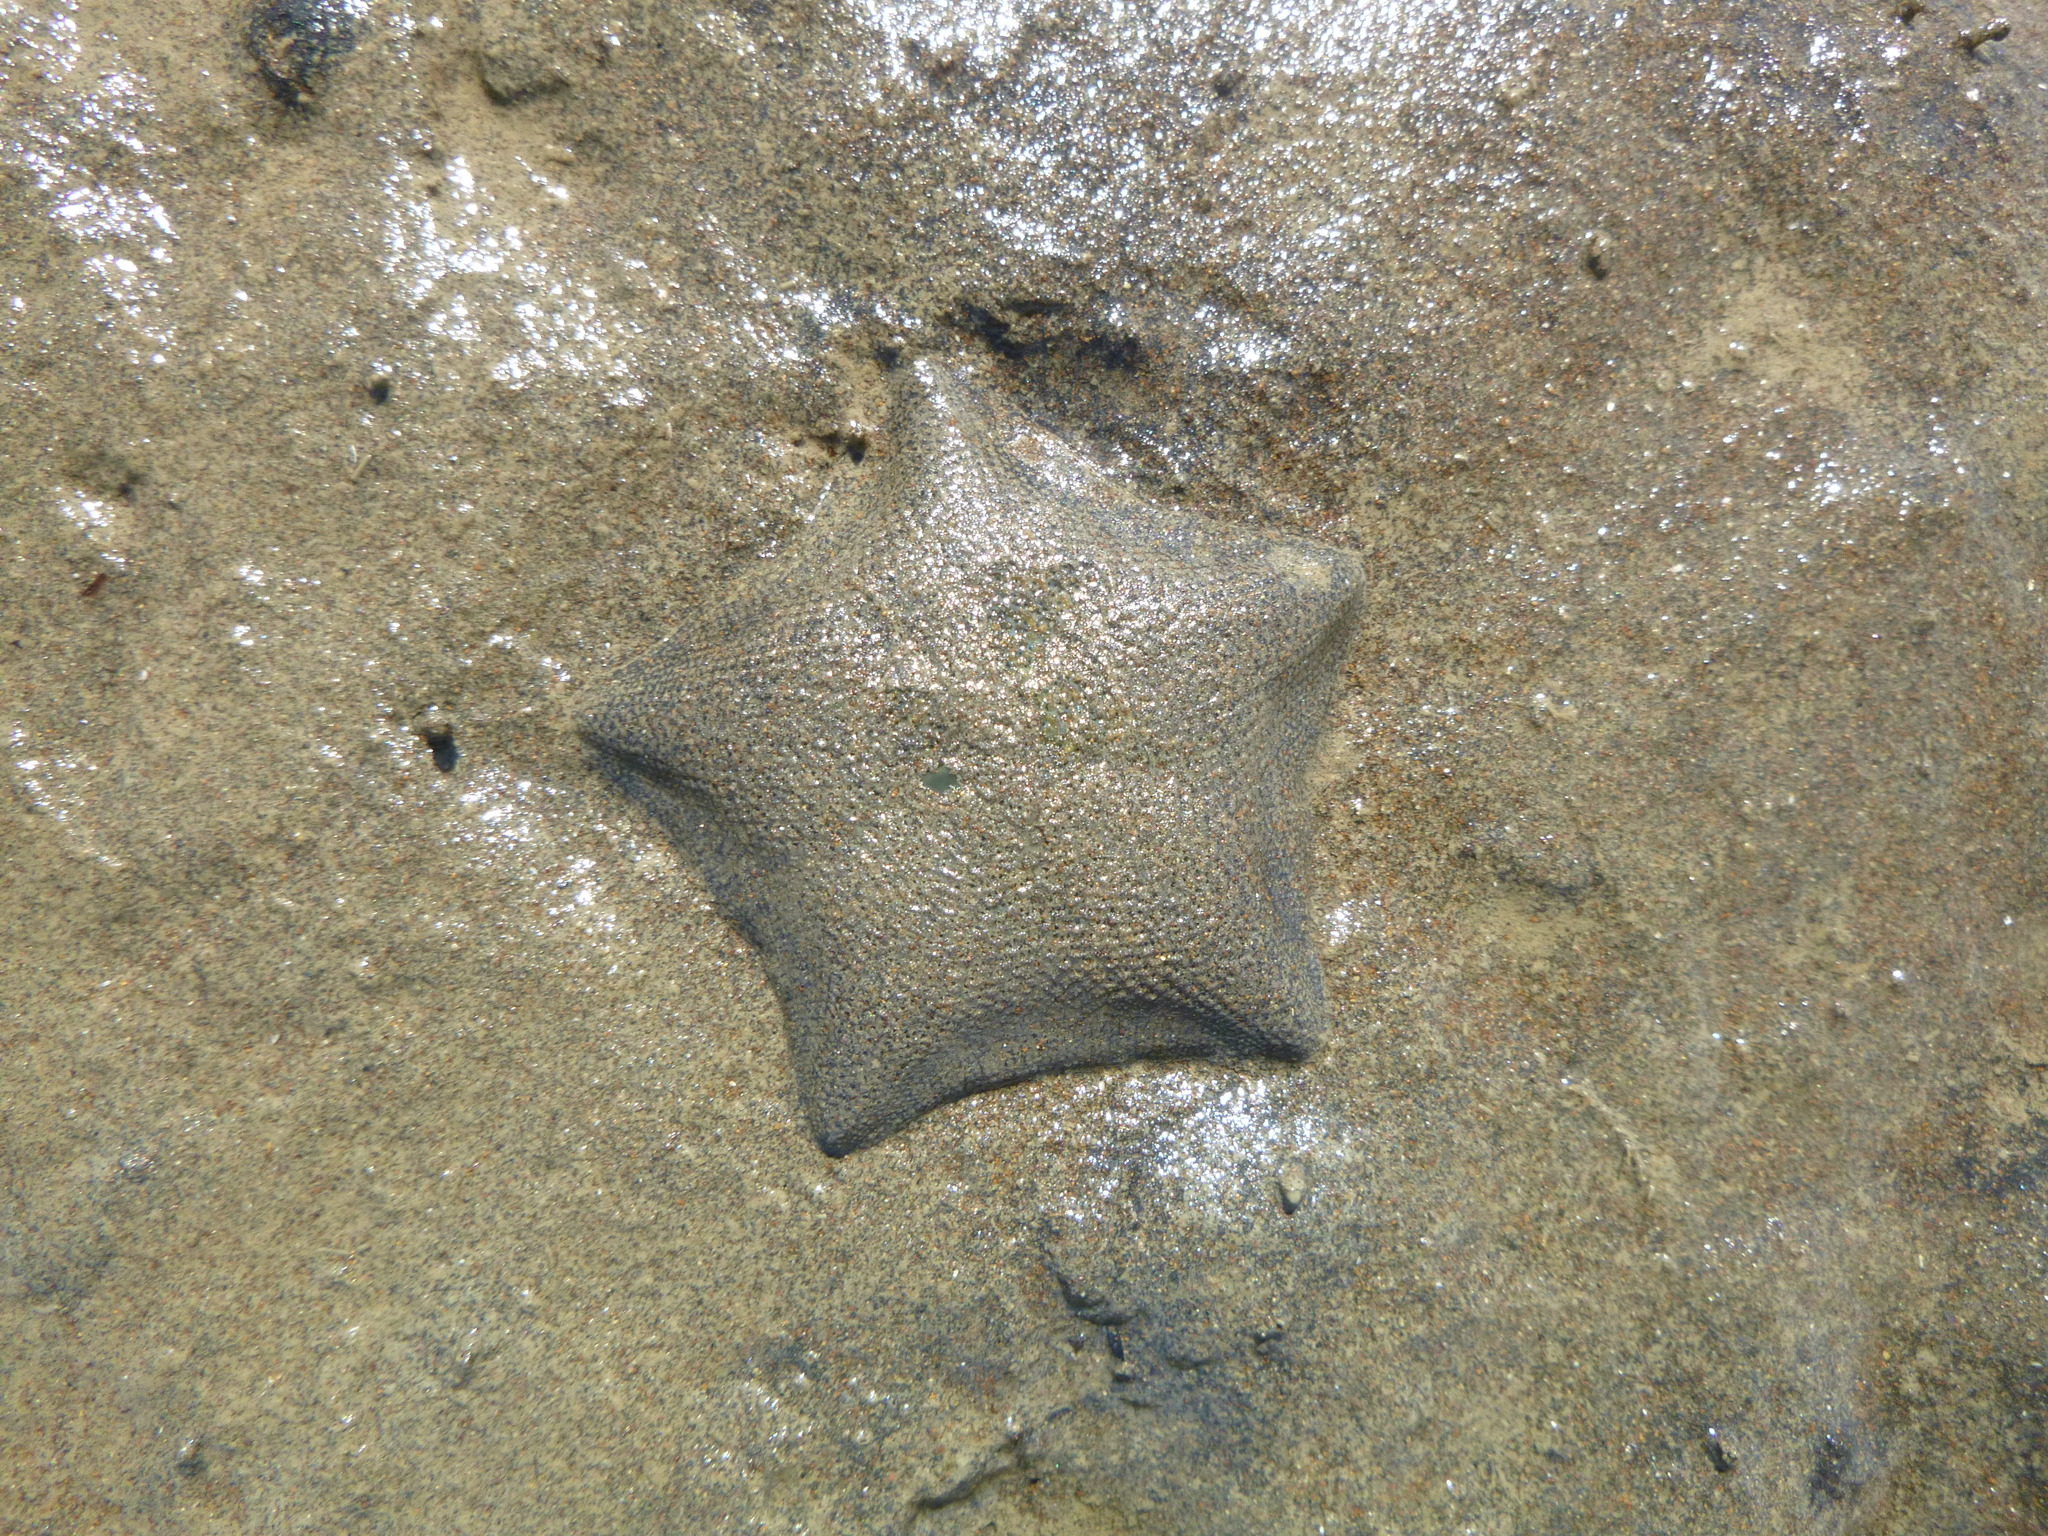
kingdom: Animalia
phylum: Echinodermata
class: Asteroidea
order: Valvatida
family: Asterinidae
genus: Patiriella
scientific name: Patiriella regularis
